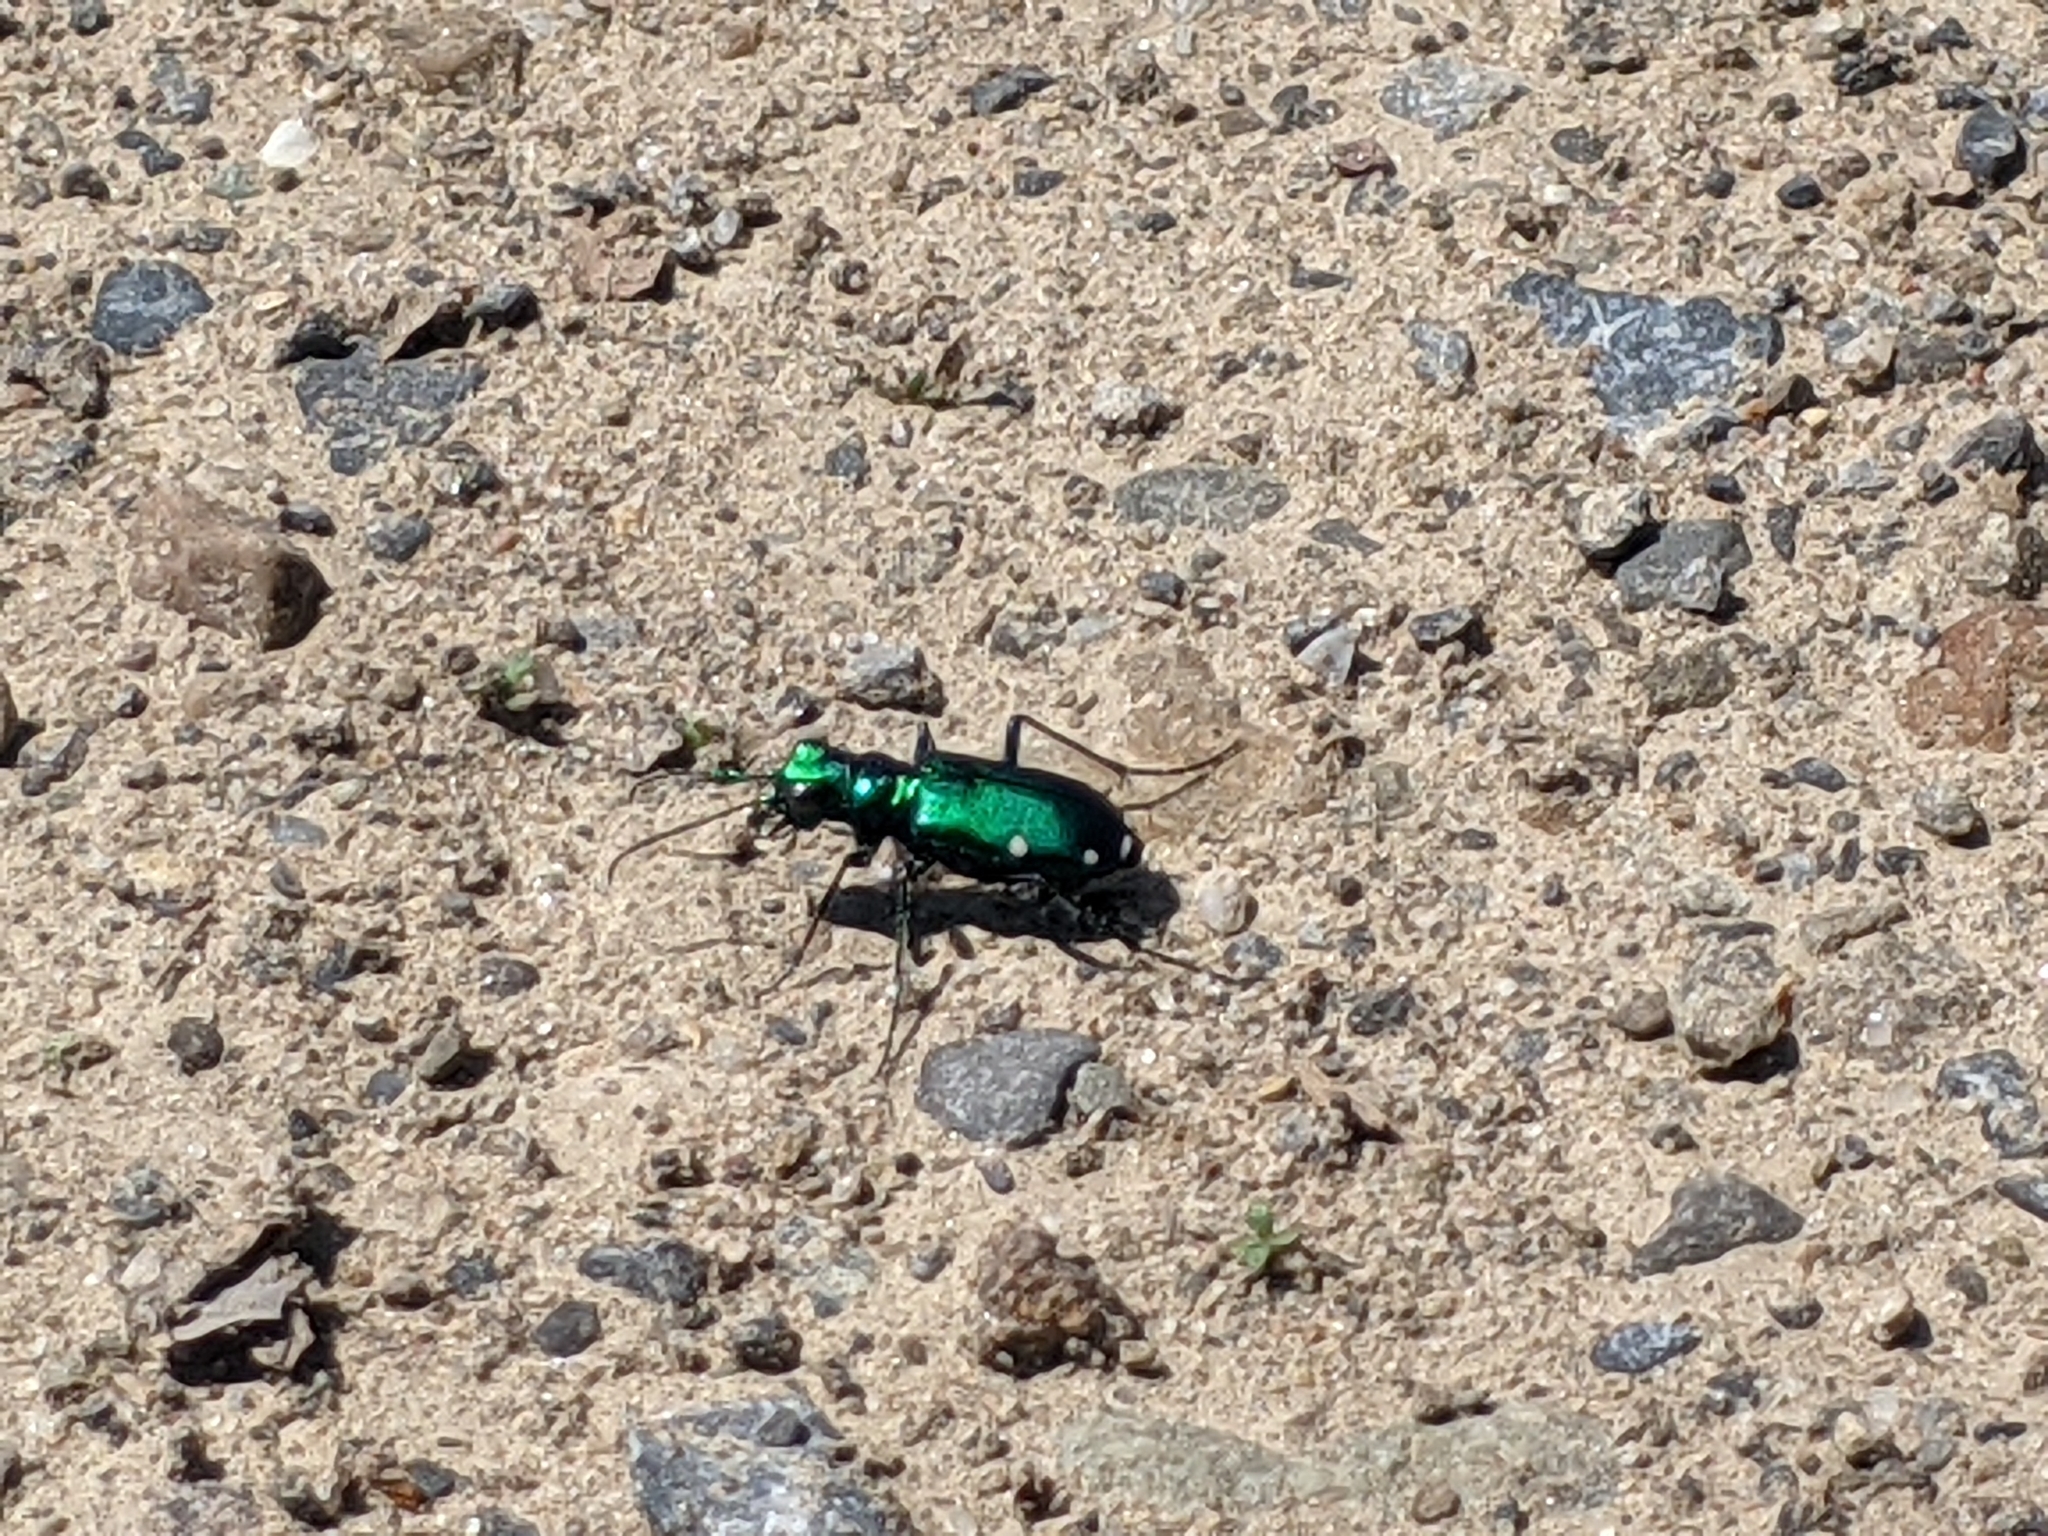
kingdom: Animalia
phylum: Arthropoda
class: Insecta
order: Coleoptera
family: Carabidae
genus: Cicindela
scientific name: Cicindela sexguttata
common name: Six-spotted tiger beetle
